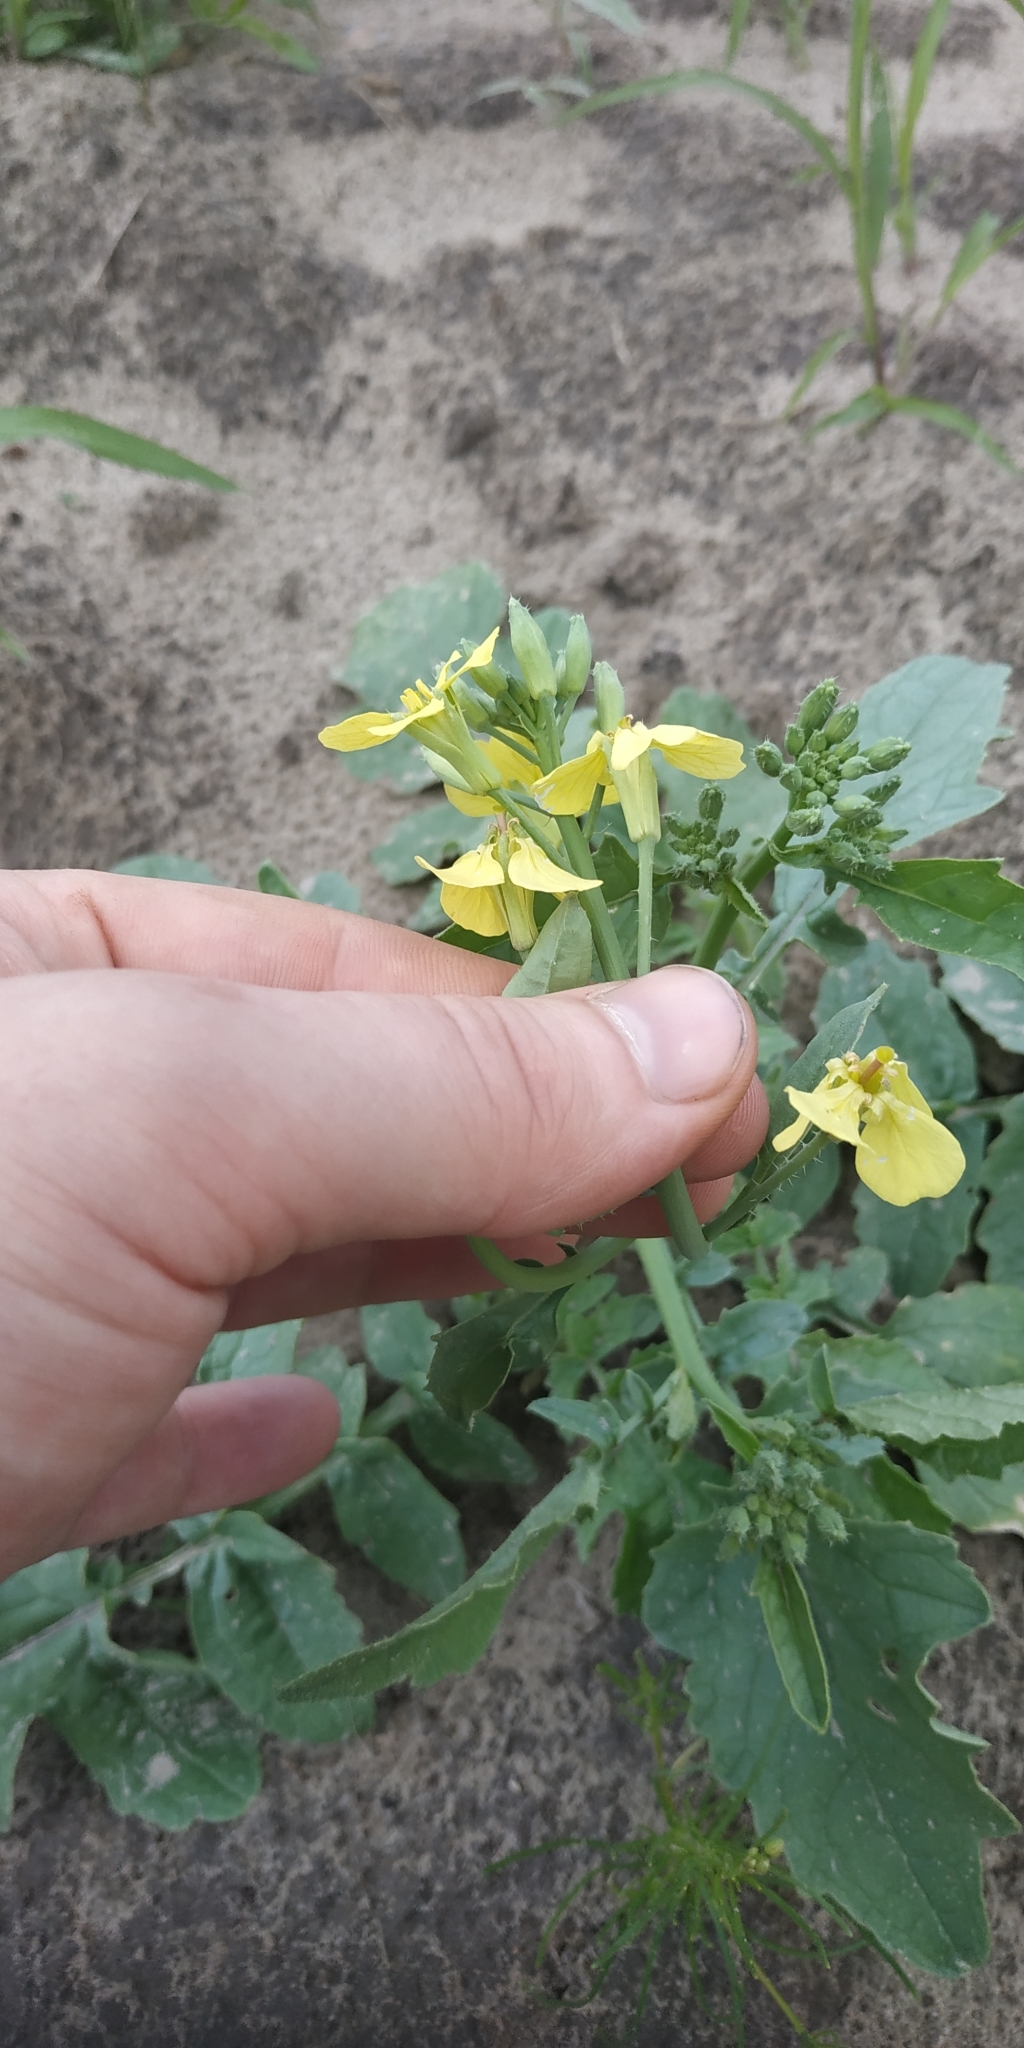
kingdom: Plantae
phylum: Tracheophyta
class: Magnoliopsida
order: Brassicales
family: Brassicaceae
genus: Raphanus
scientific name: Raphanus raphanistrum
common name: Wild radish
